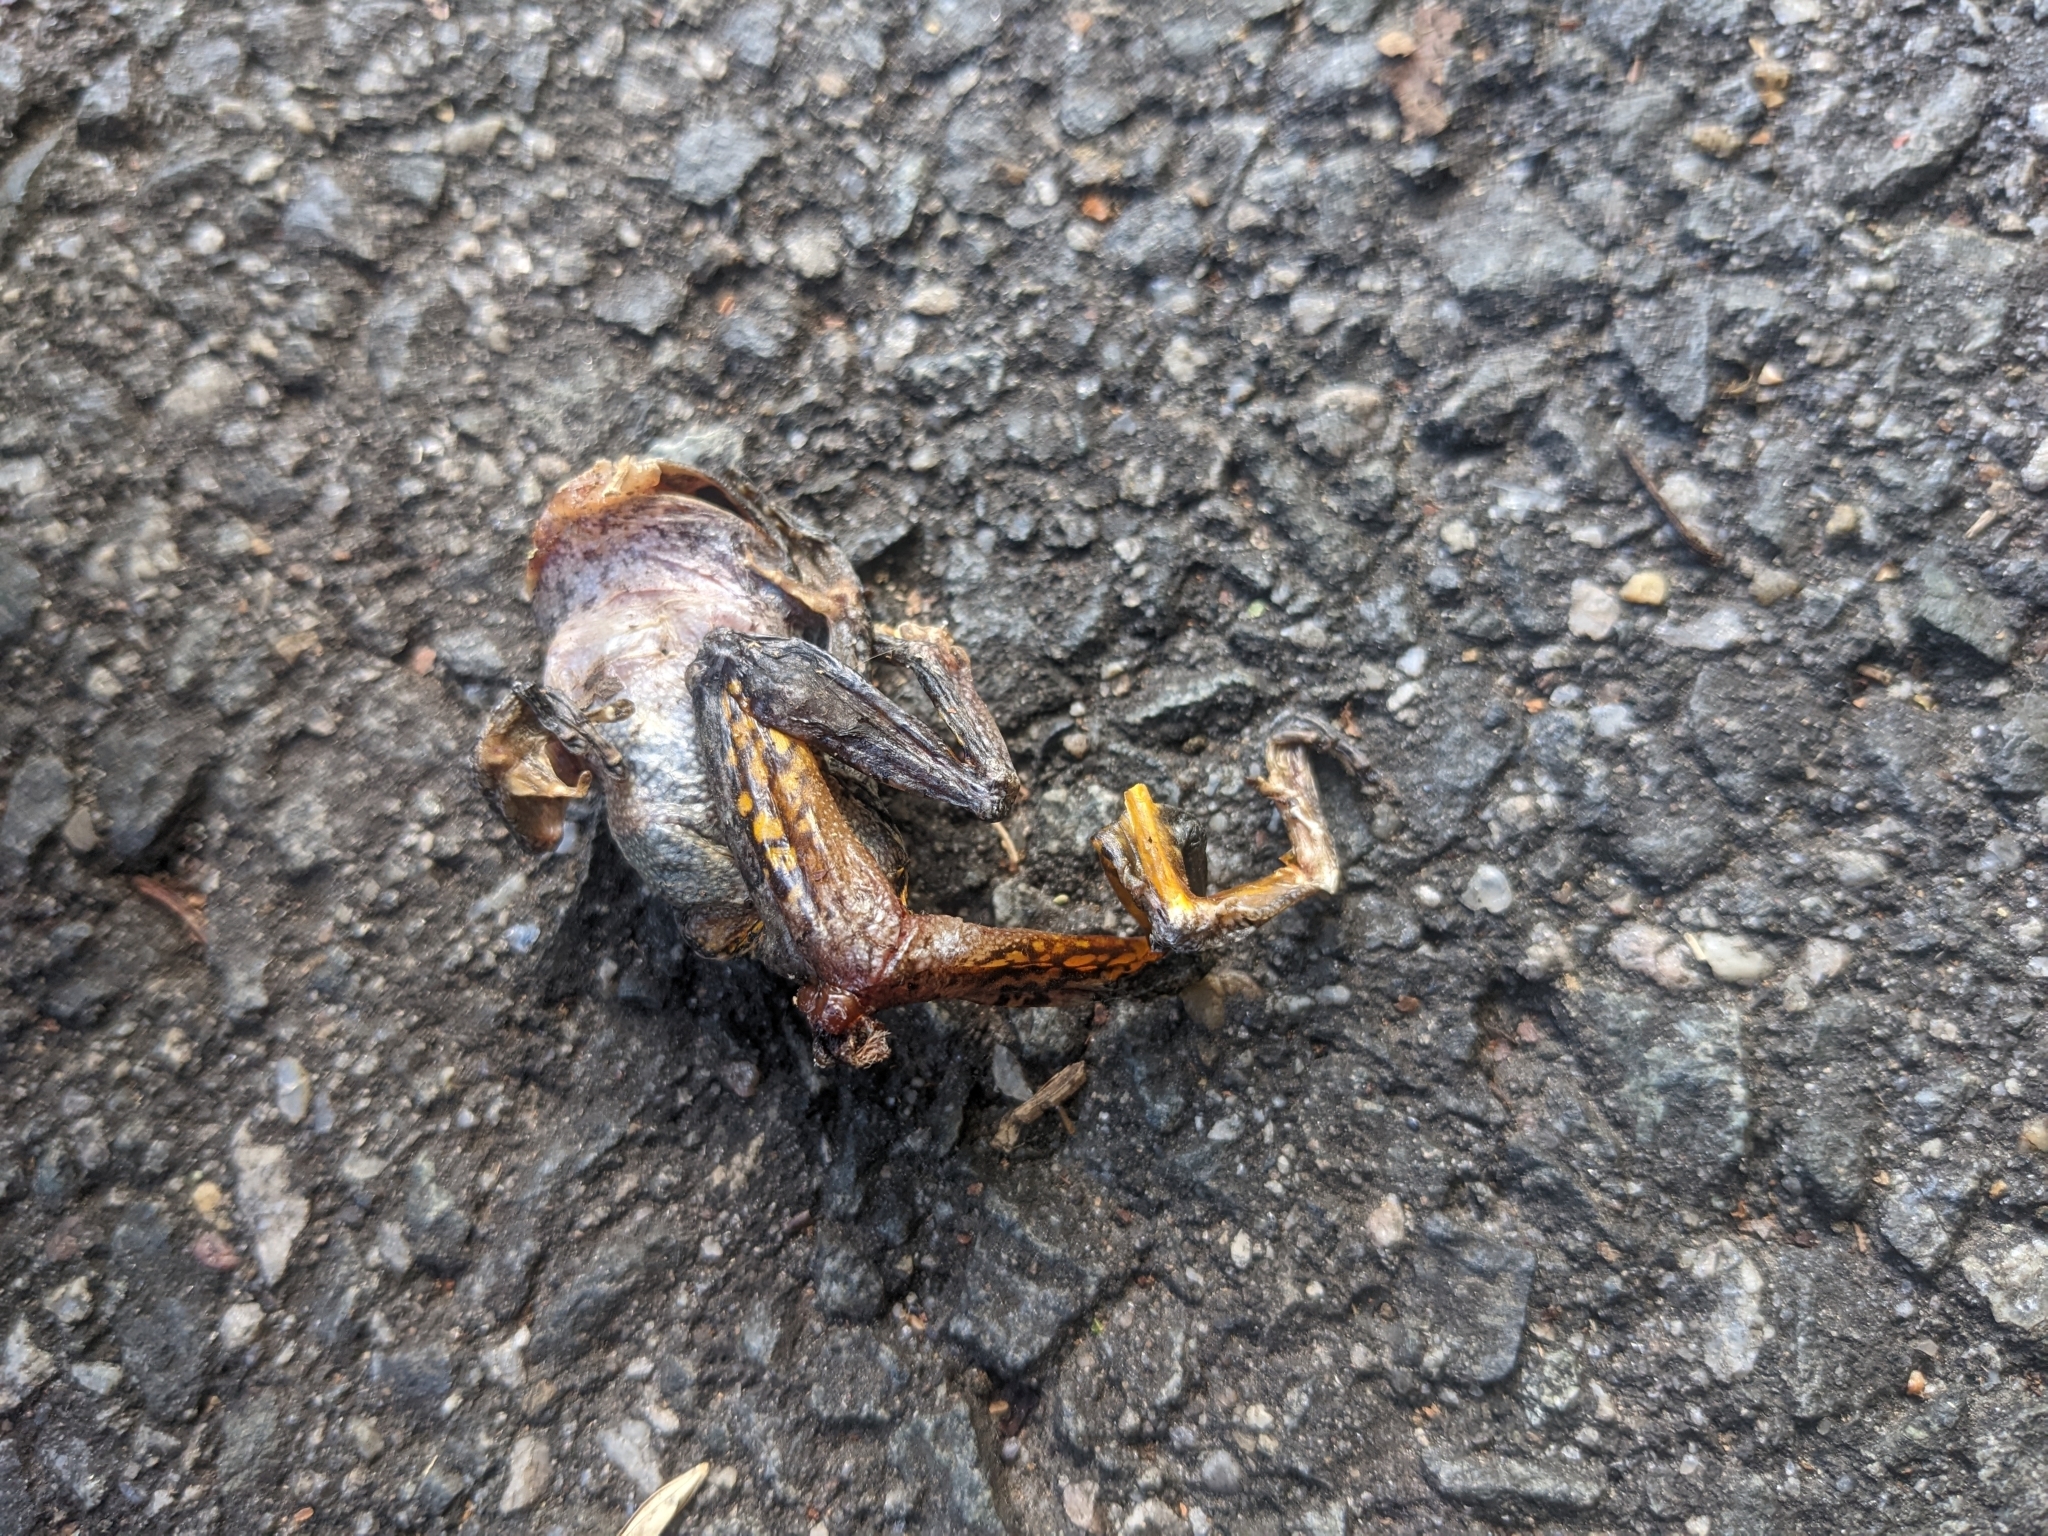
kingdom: Animalia
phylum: Chordata
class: Amphibia
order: Anura
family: Hylidae
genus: Hyla
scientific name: Hyla
